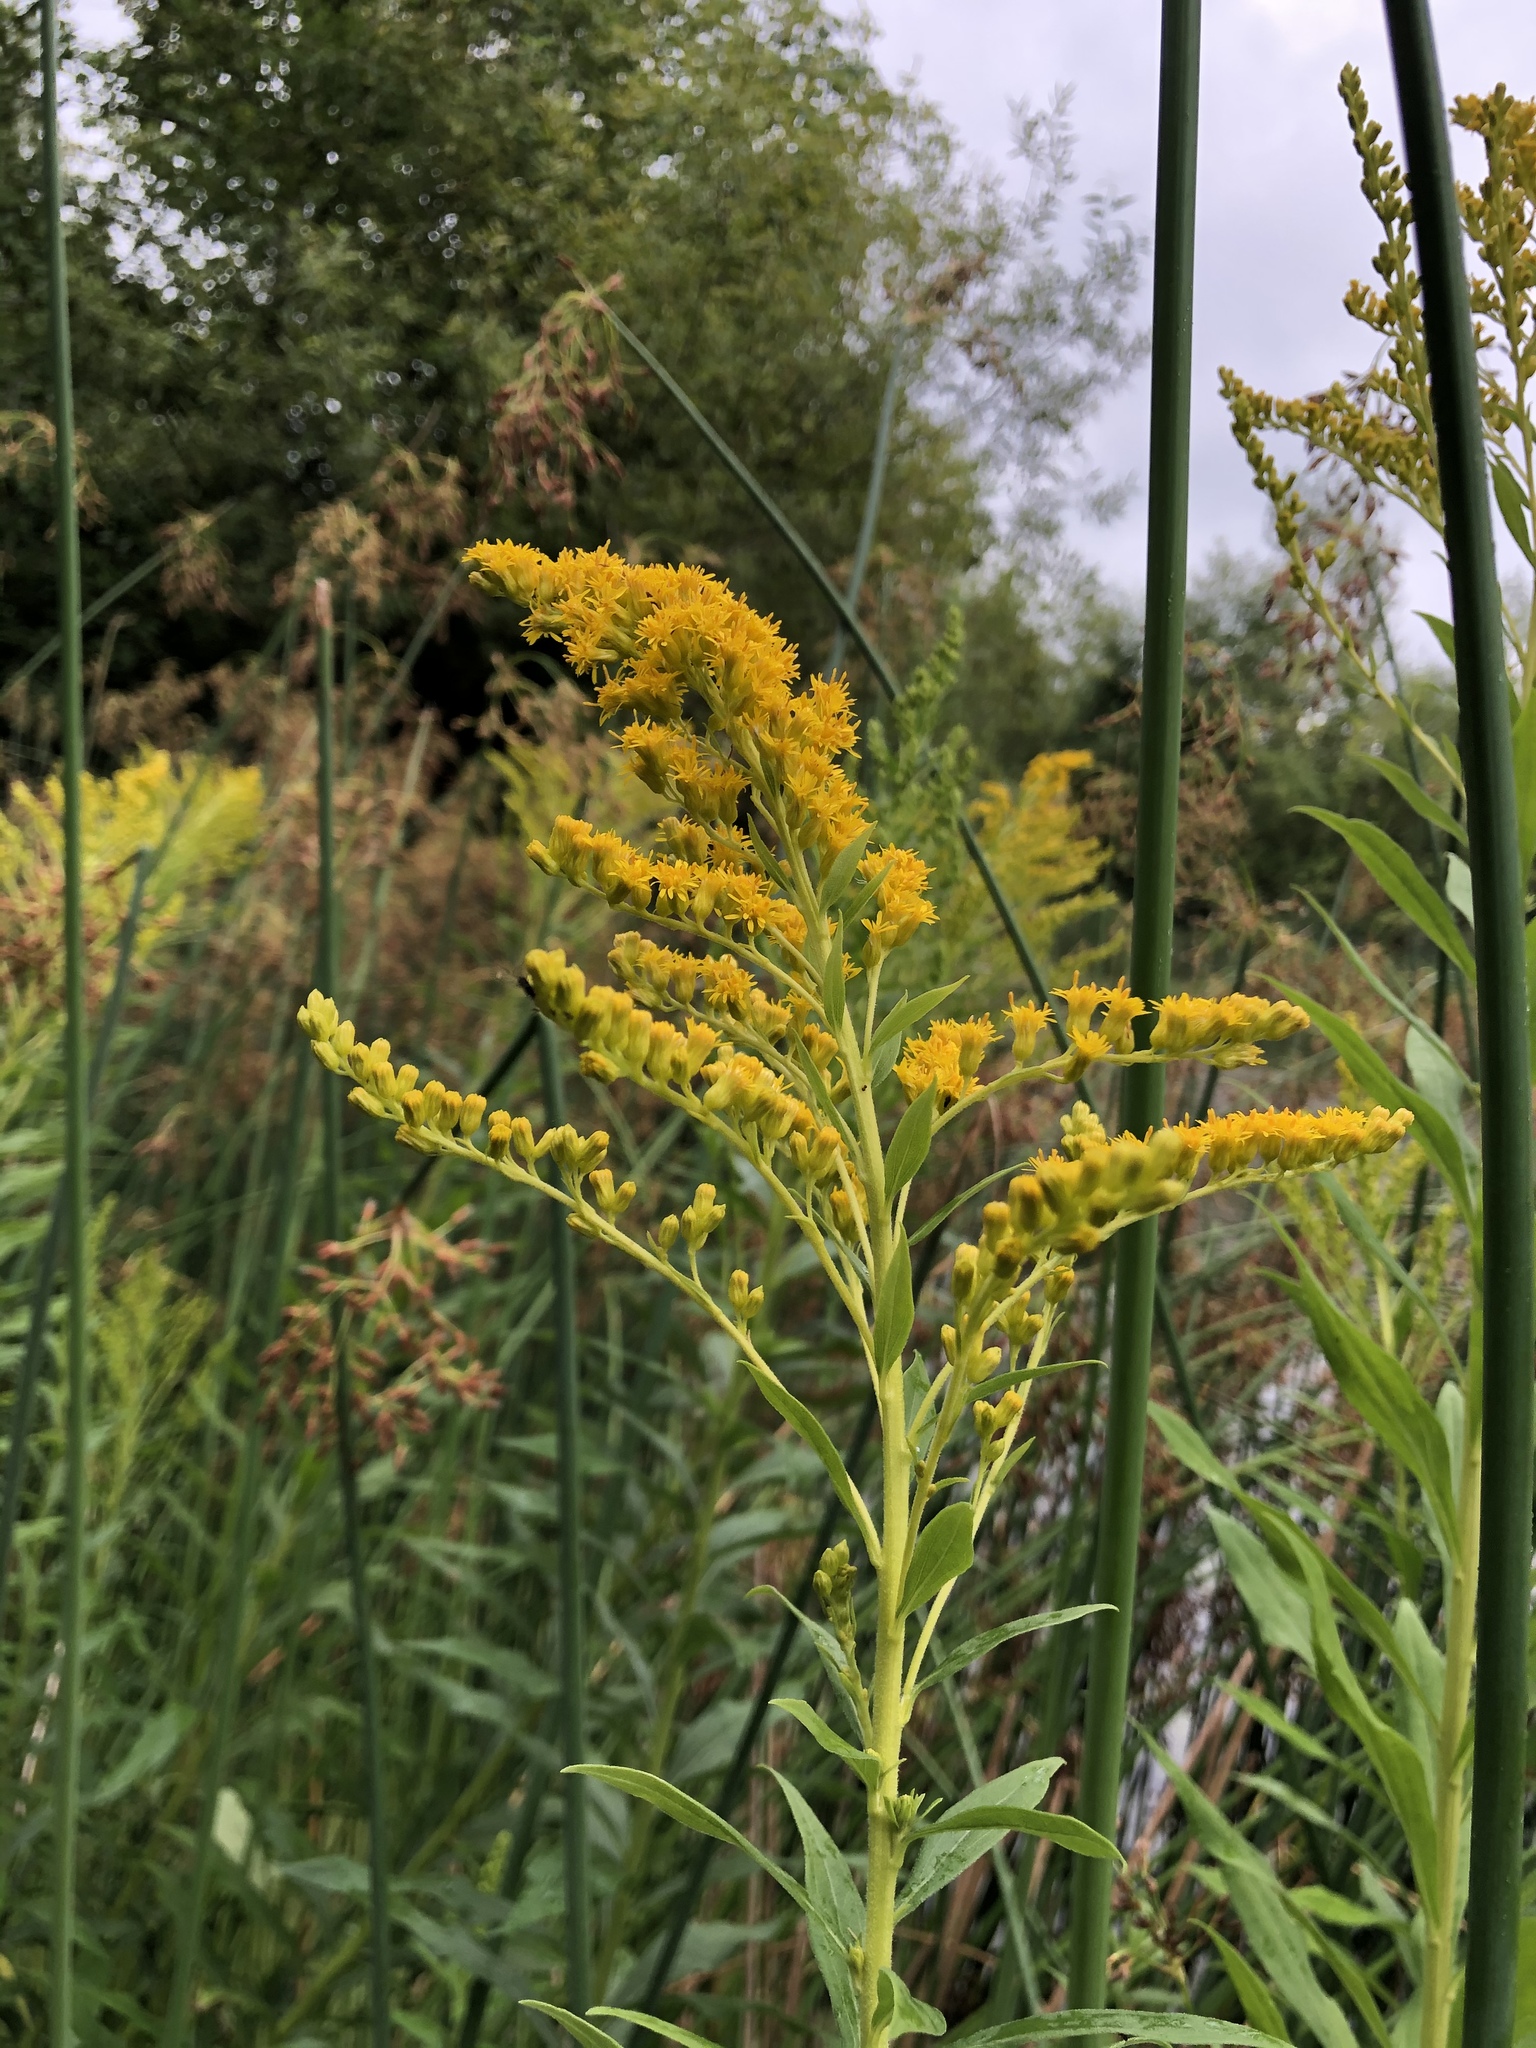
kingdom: Plantae
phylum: Tracheophyta
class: Magnoliopsida
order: Asterales
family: Asteraceae
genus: Solidago
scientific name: Solidago canadensis
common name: Canada goldenrod
